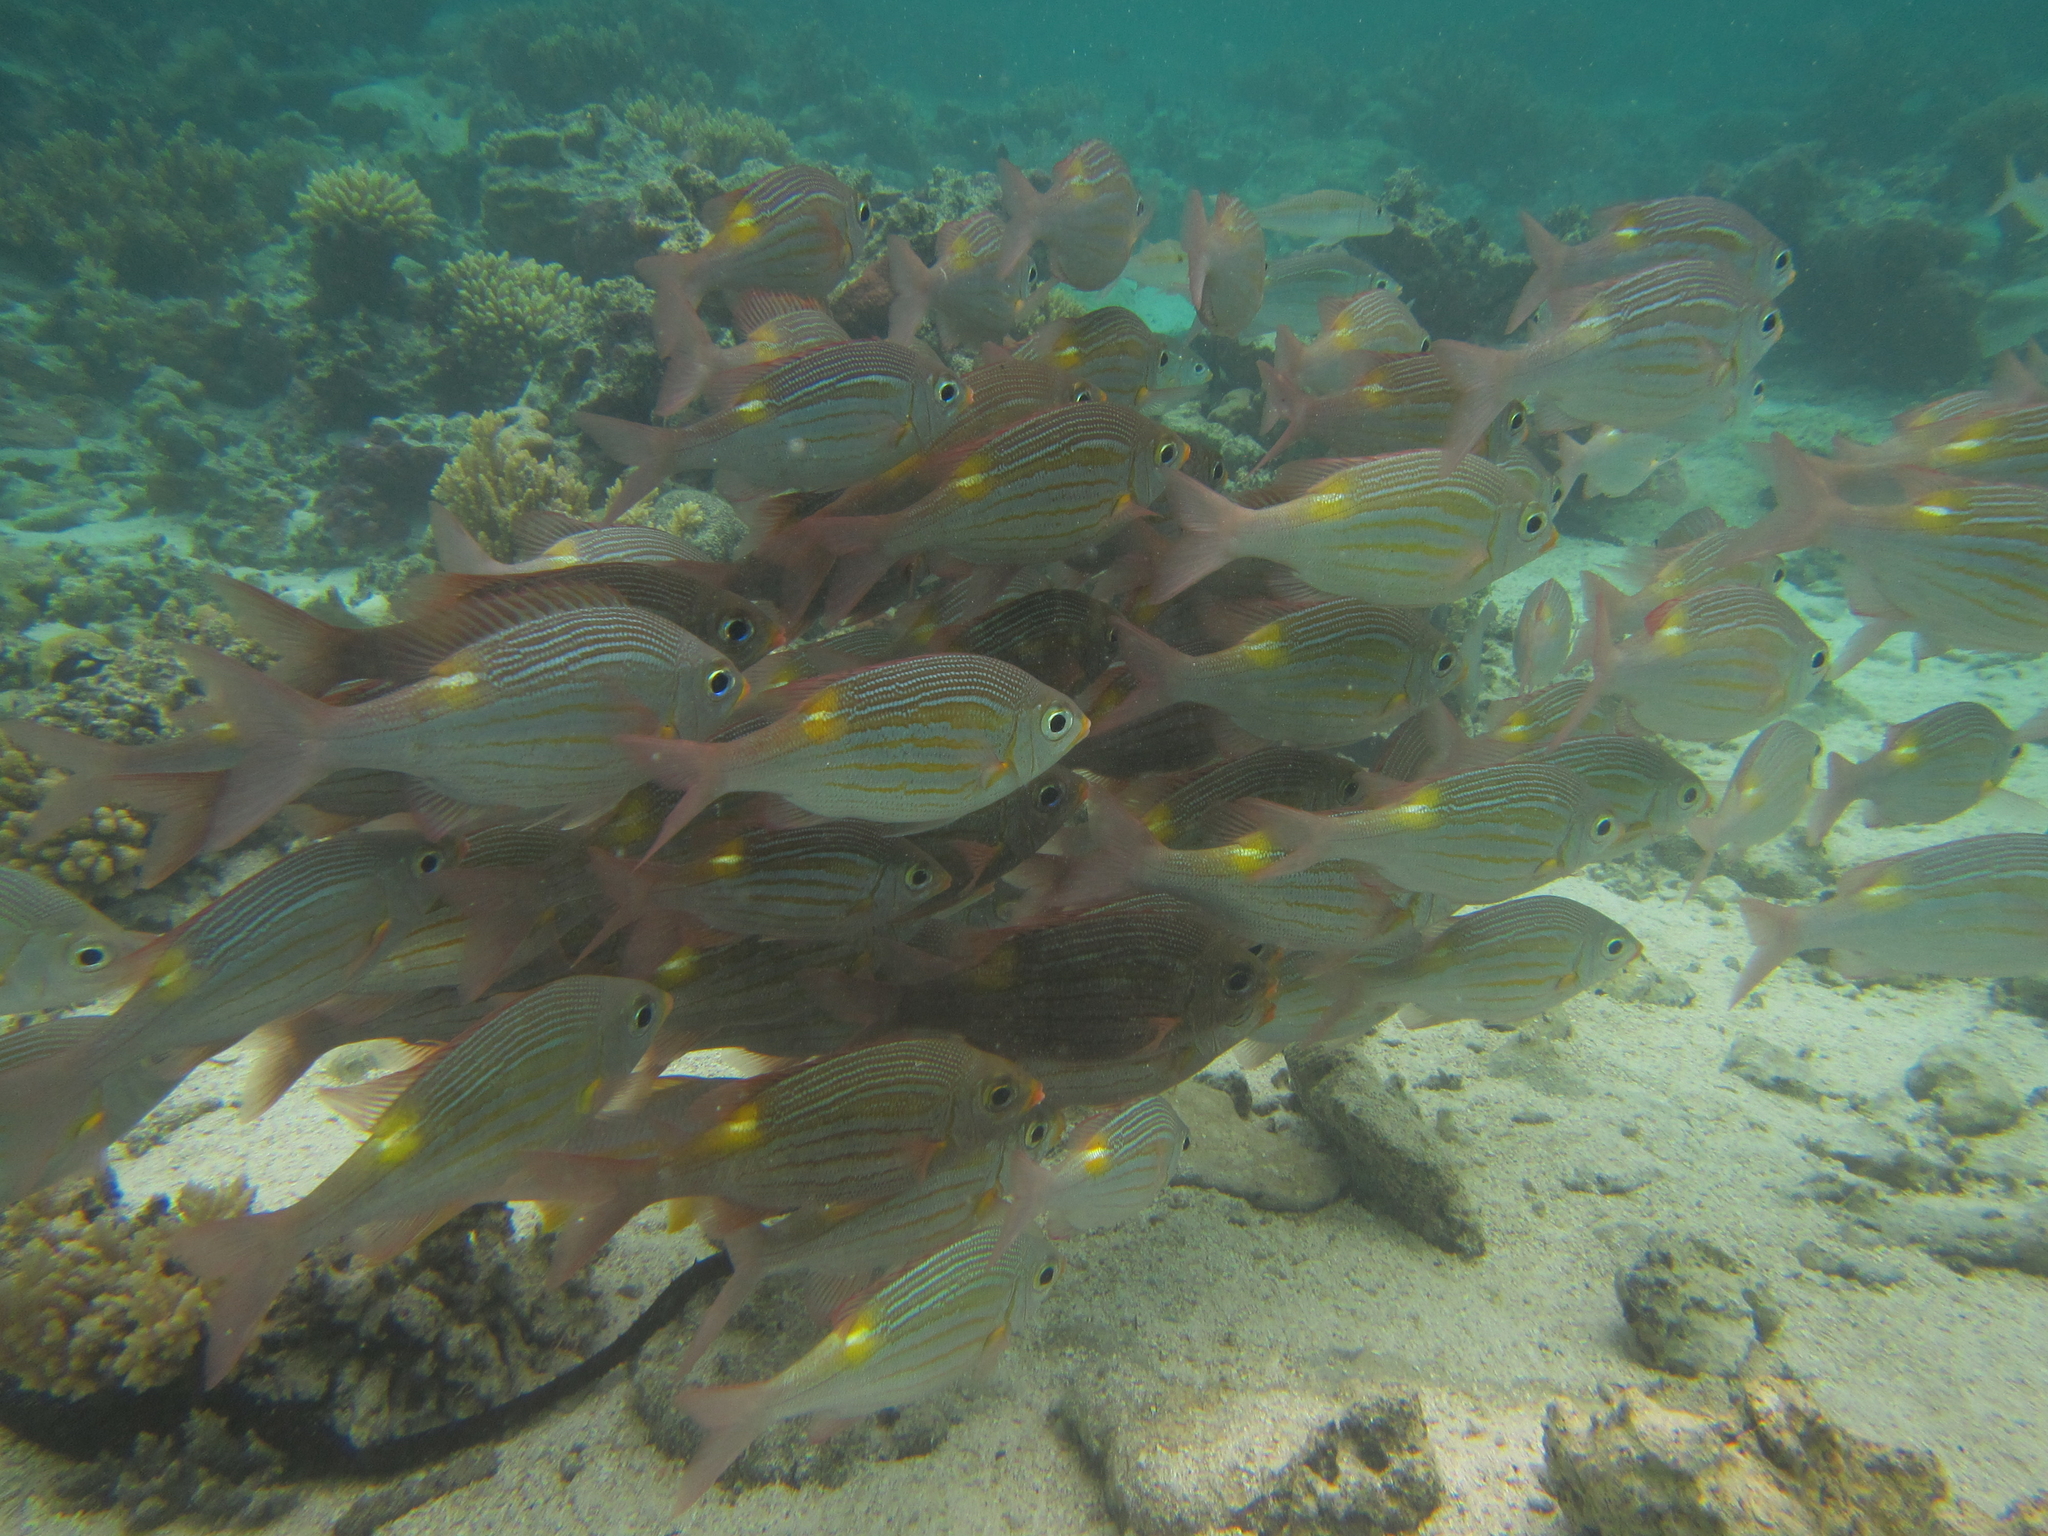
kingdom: Animalia
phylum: Chordata
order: Perciformes
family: Lethrinidae
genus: Gnathodentex
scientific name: Gnathodentex aureolineatus
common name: Gold-lined sea bream
